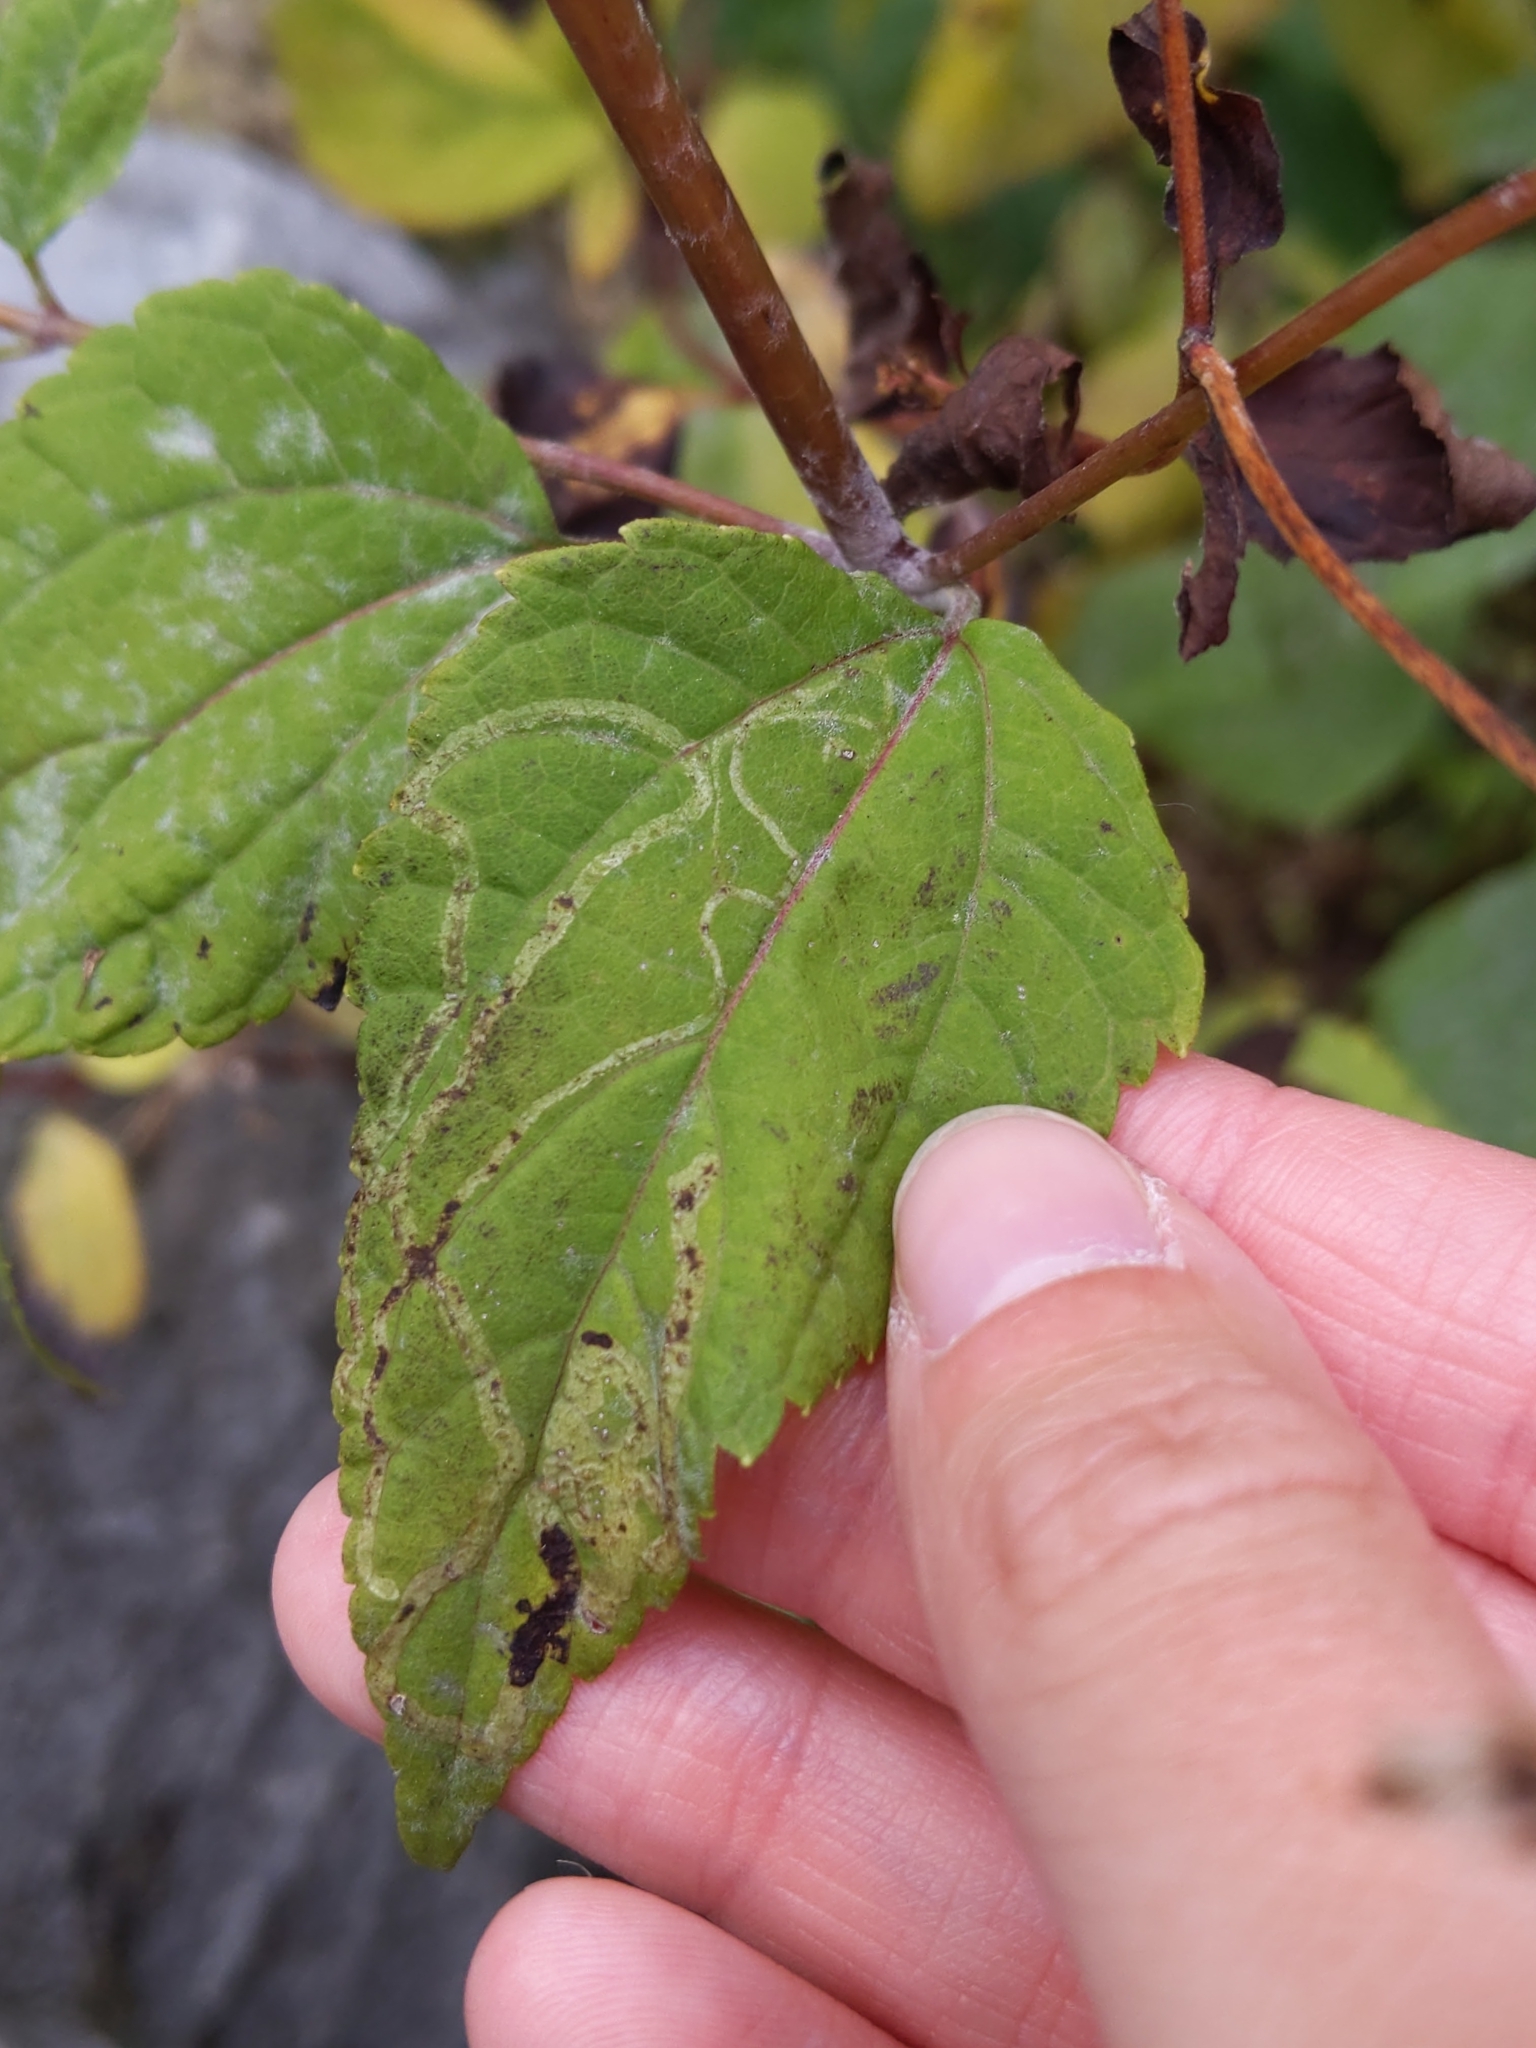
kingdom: Plantae
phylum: Tracheophyta
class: Magnoliopsida
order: Asterales
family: Asteraceae
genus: Ageratina
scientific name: Ageratina altissima
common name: White snakeroot
